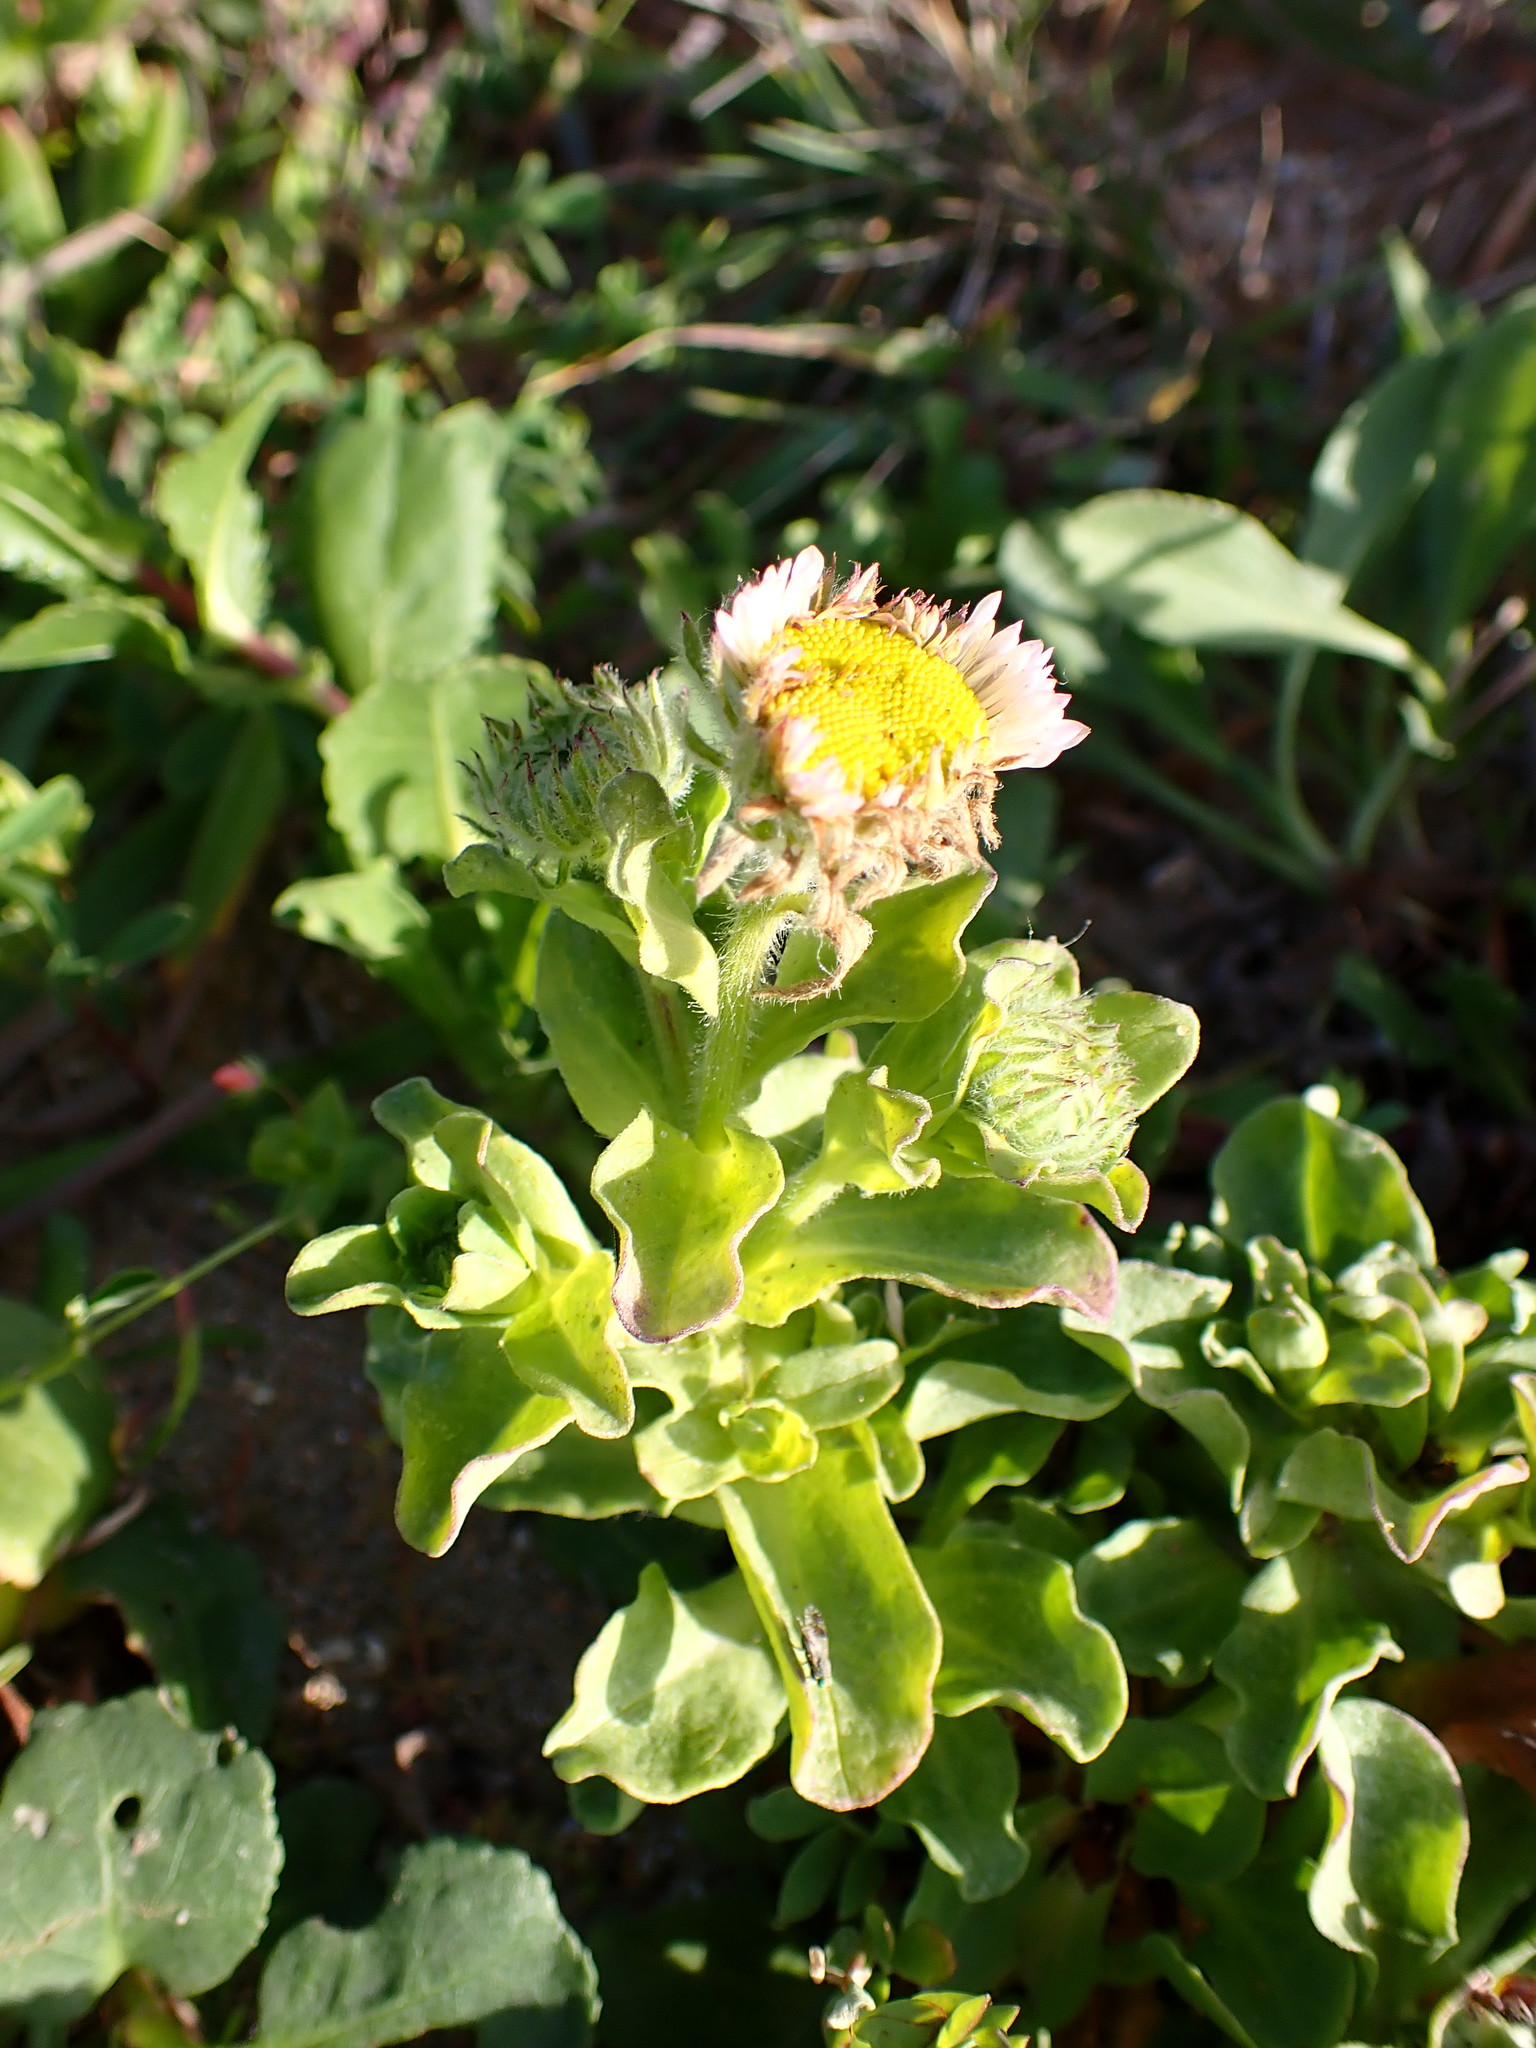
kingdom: Plantae
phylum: Tracheophyta
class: Magnoliopsida
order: Asterales
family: Asteraceae
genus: Erigeron
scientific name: Erigeron glaucus
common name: Seaside daisy
